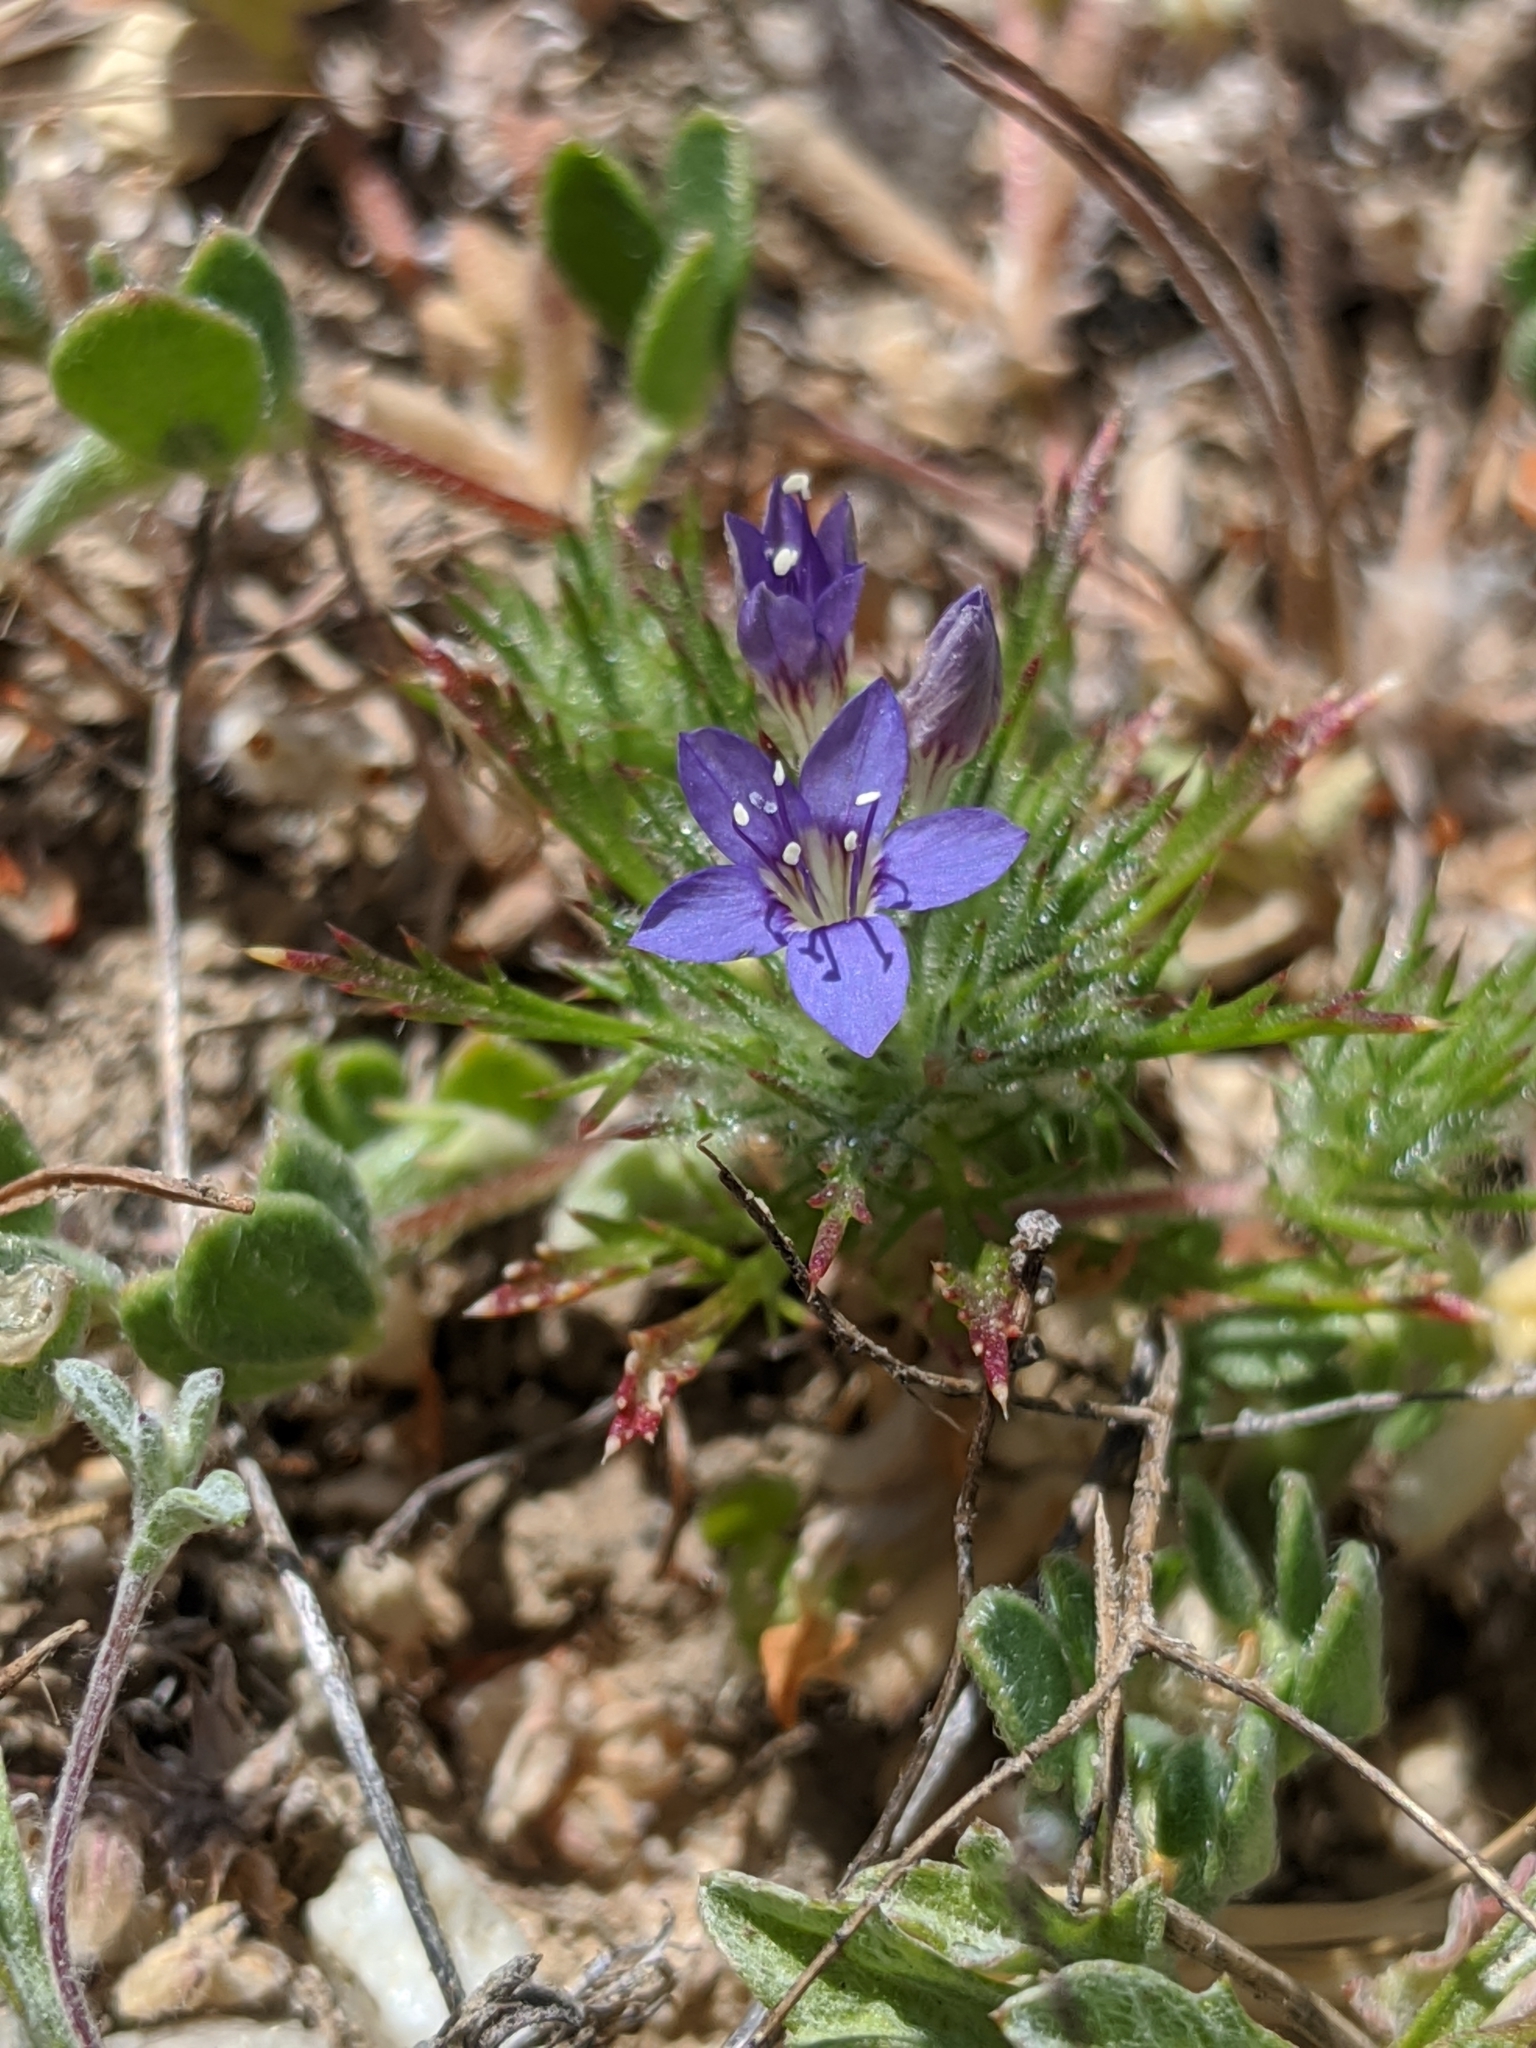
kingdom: Plantae
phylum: Tracheophyta
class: Magnoliopsida
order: Ericales
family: Polemoniaceae
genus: Navarretia
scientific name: Navarretia pubescens
